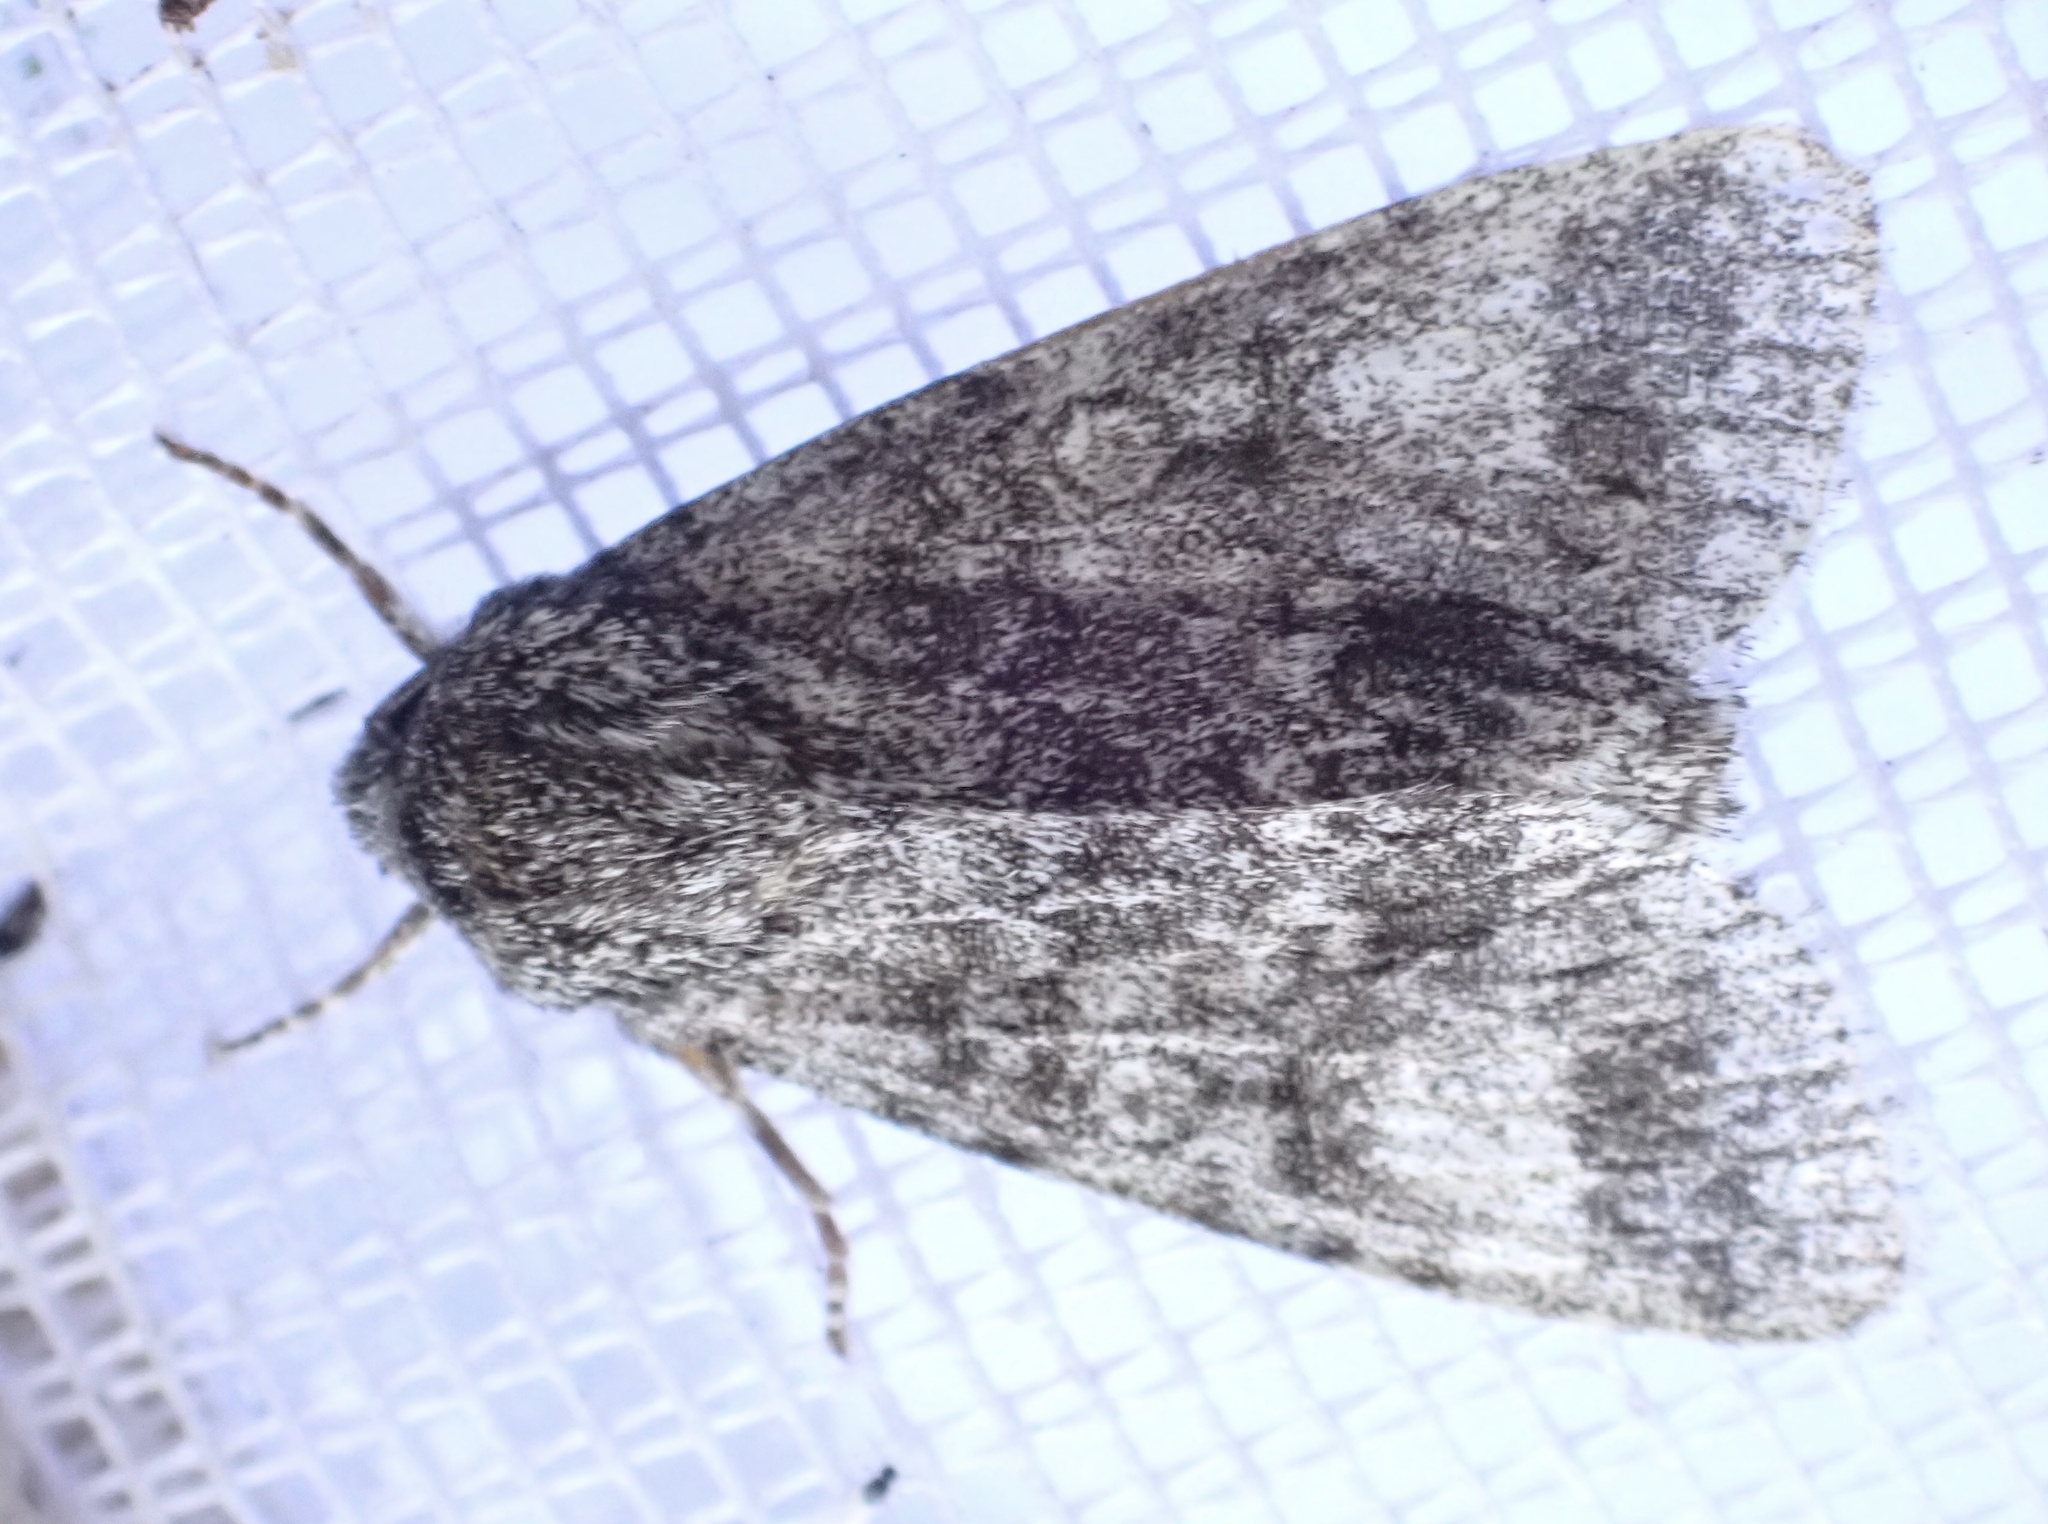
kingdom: Animalia
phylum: Arthropoda
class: Insecta
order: Lepidoptera
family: Noctuidae
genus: Acronicta
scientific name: Acronicta megacephala
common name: Poplar grey
